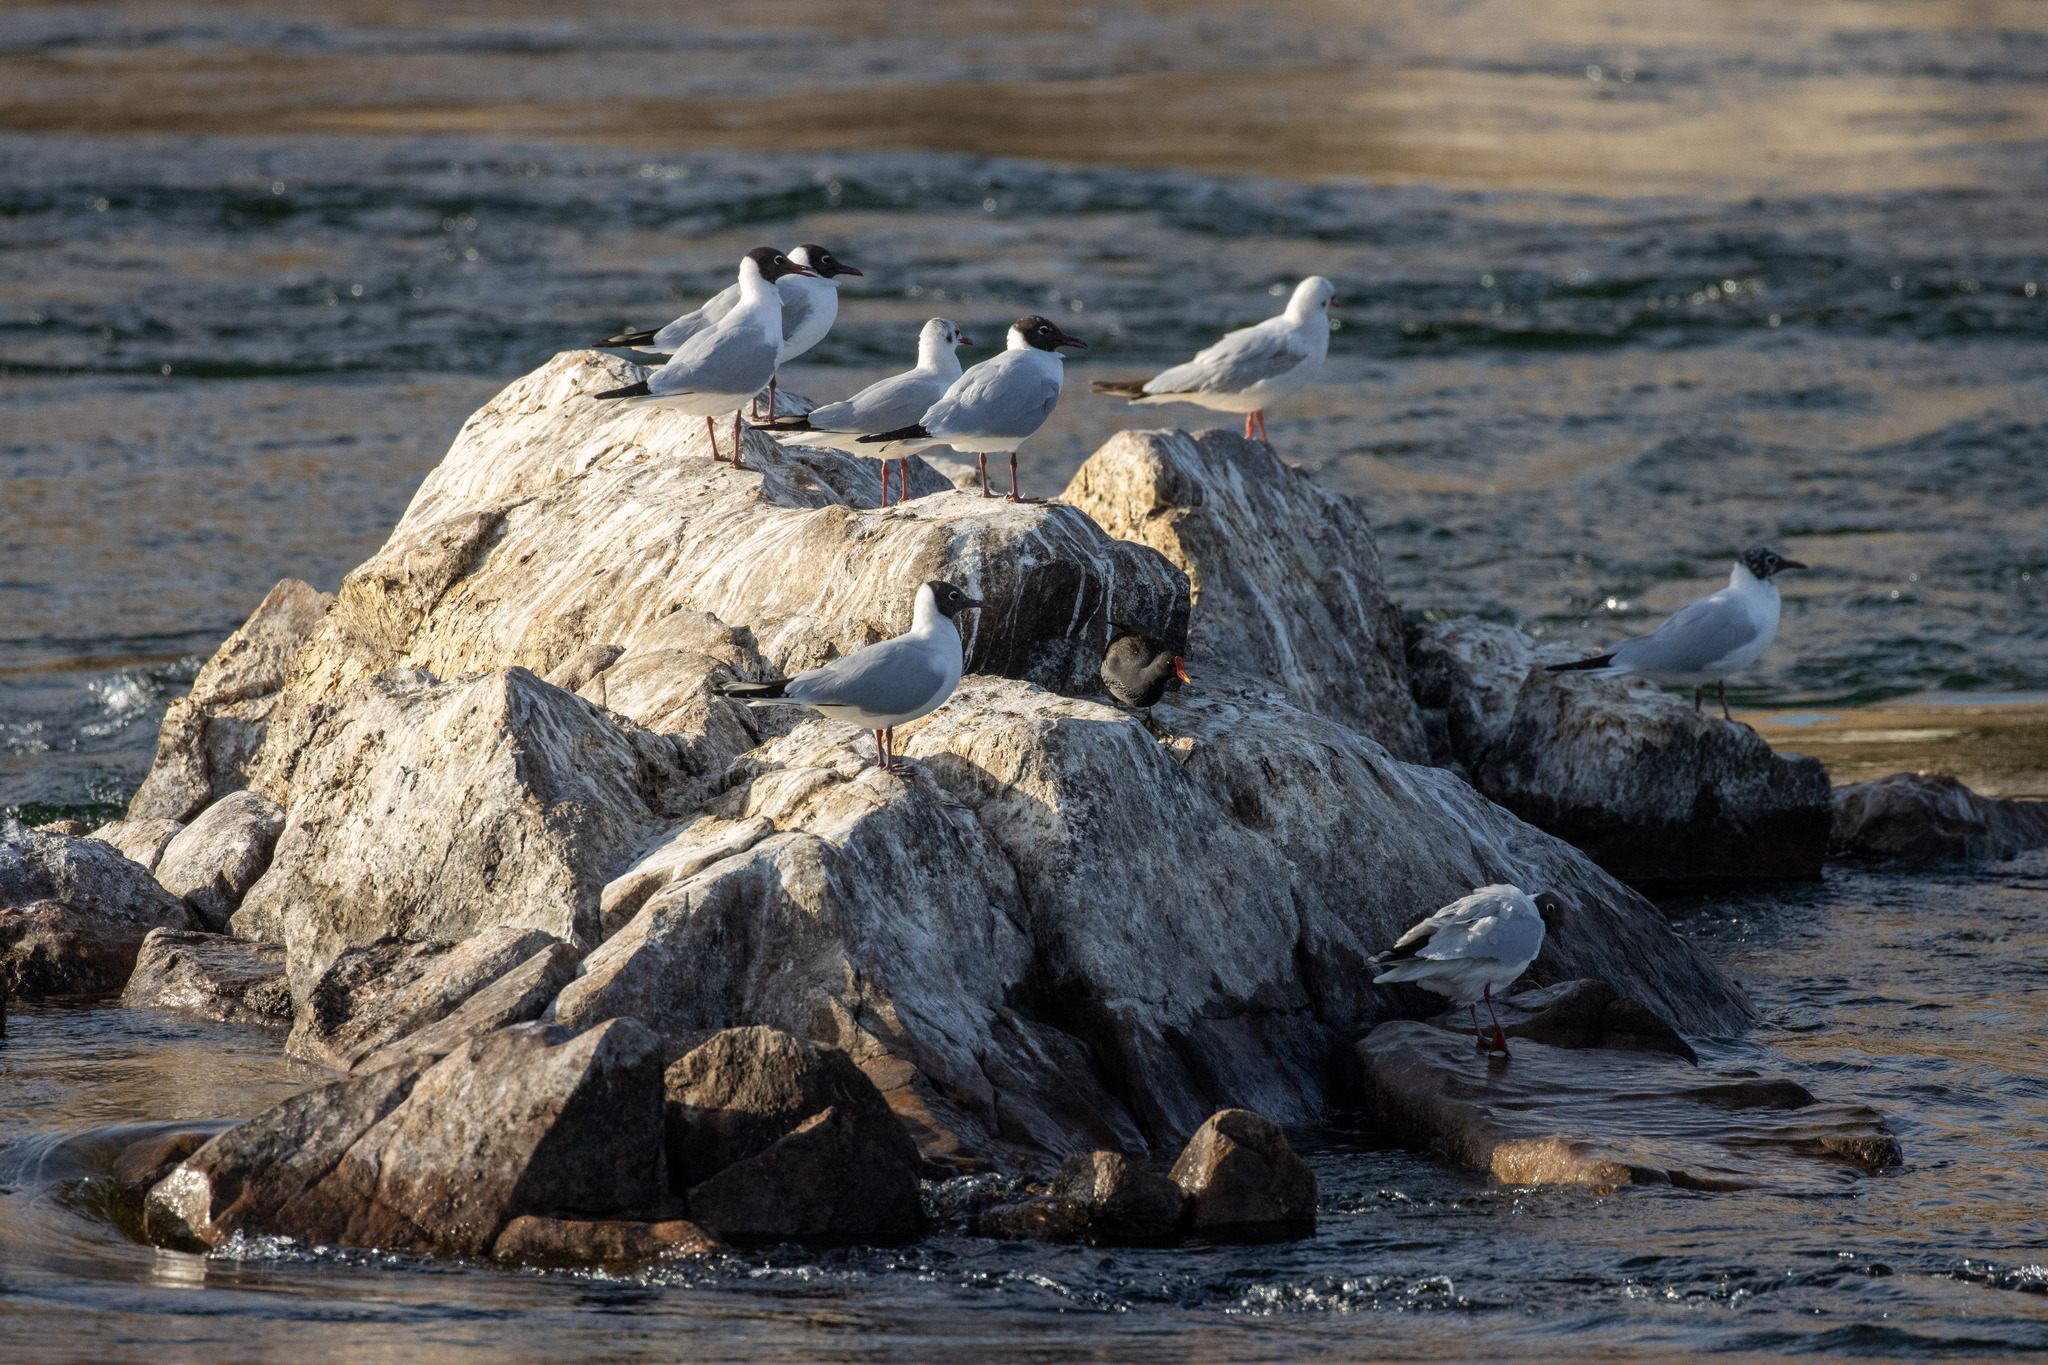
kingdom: Animalia
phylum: Chordata
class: Aves
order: Charadriiformes
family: Laridae
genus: Chroicocephalus
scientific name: Chroicocephalus ridibundus
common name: Black-headed gull
